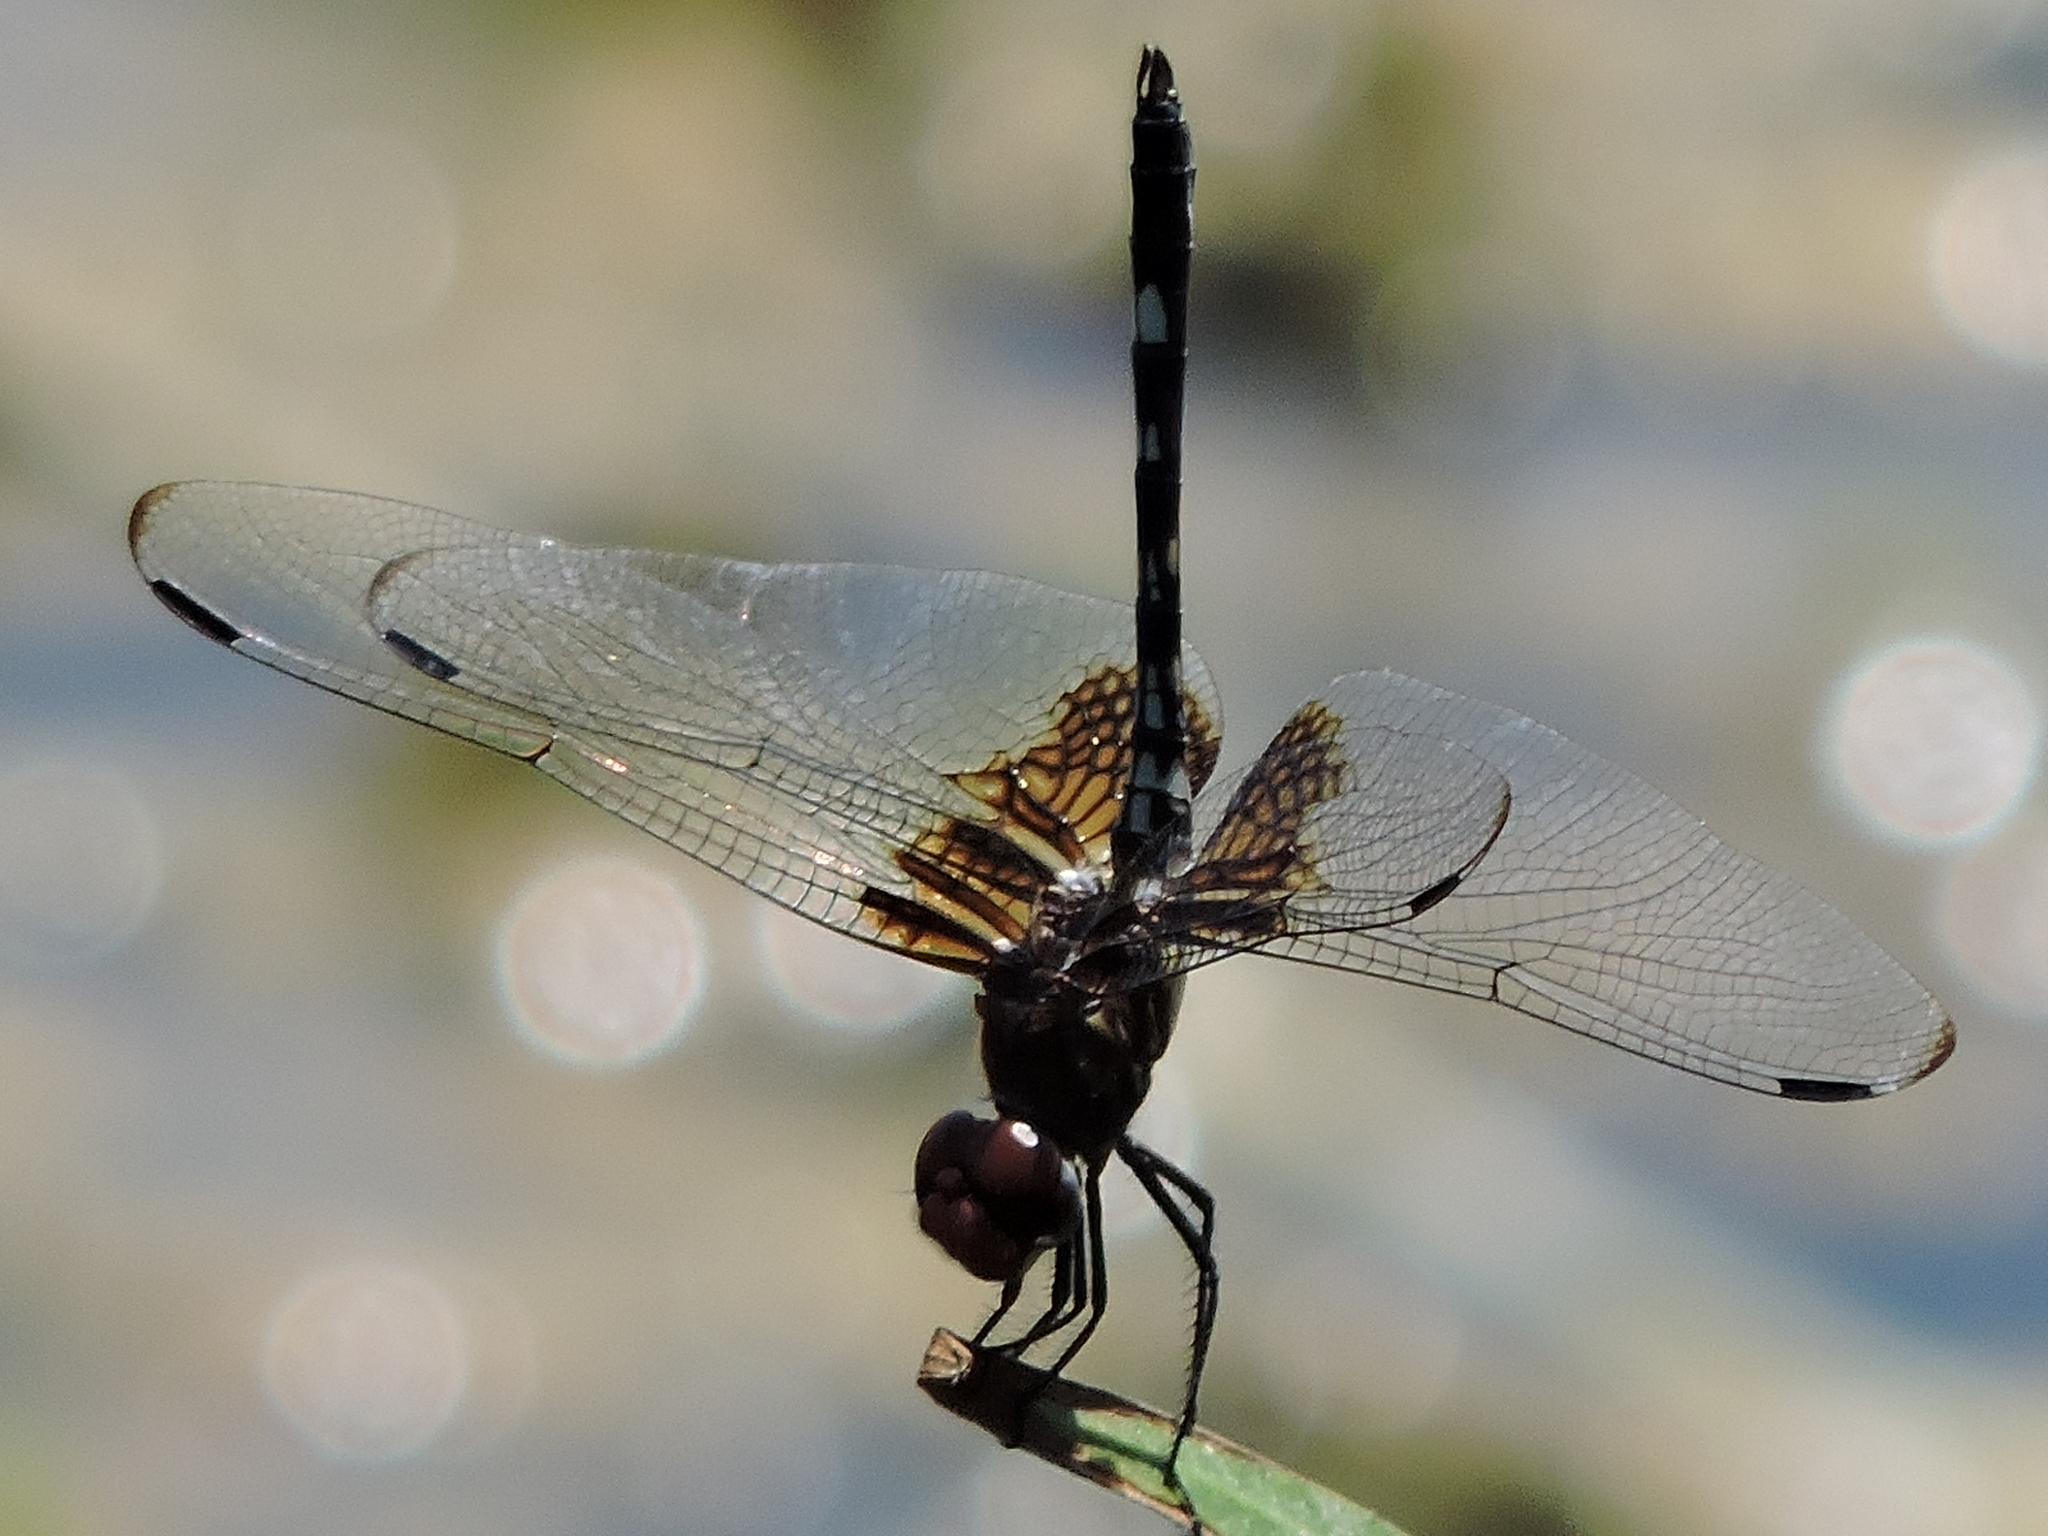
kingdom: Animalia
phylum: Arthropoda
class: Insecta
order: Odonata
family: Libellulidae
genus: Dythemis
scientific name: Dythemis fugax
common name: Checkered setwing
